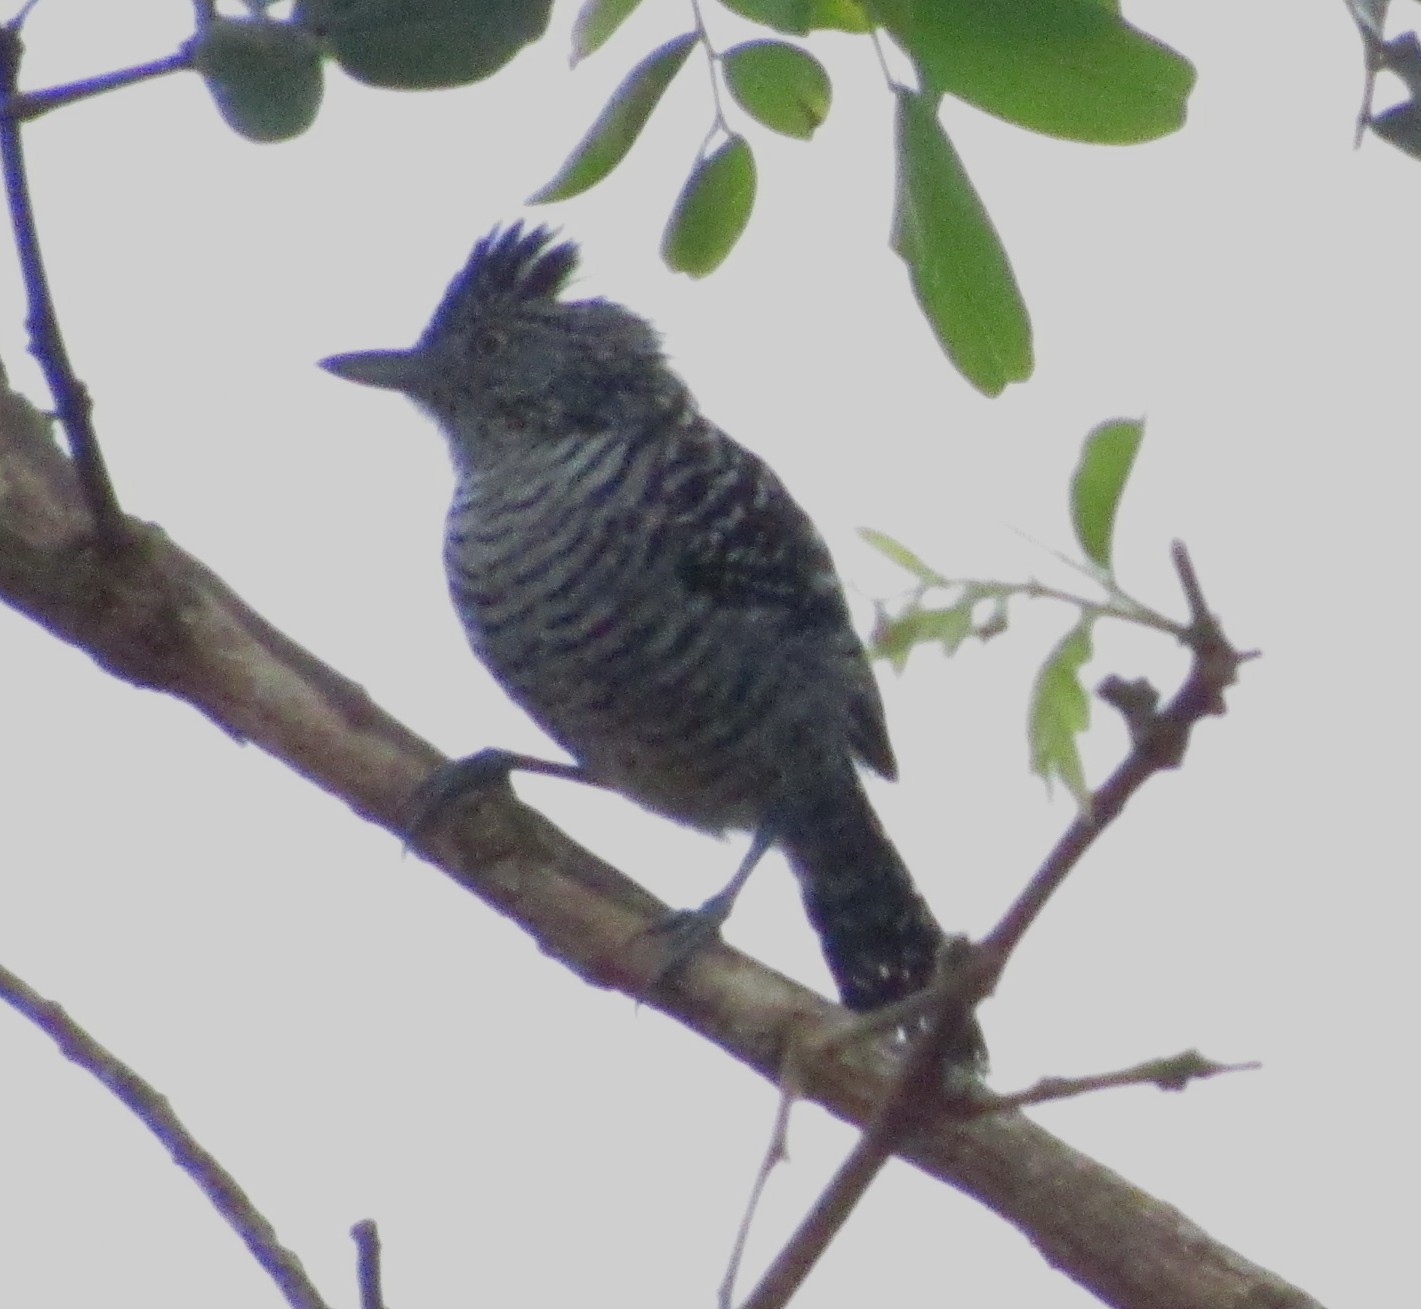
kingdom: Animalia
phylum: Chordata
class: Aves
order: Passeriformes
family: Thamnophilidae
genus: Thamnophilus
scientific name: Thamnophilus doliatus
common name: Barred antshrike
